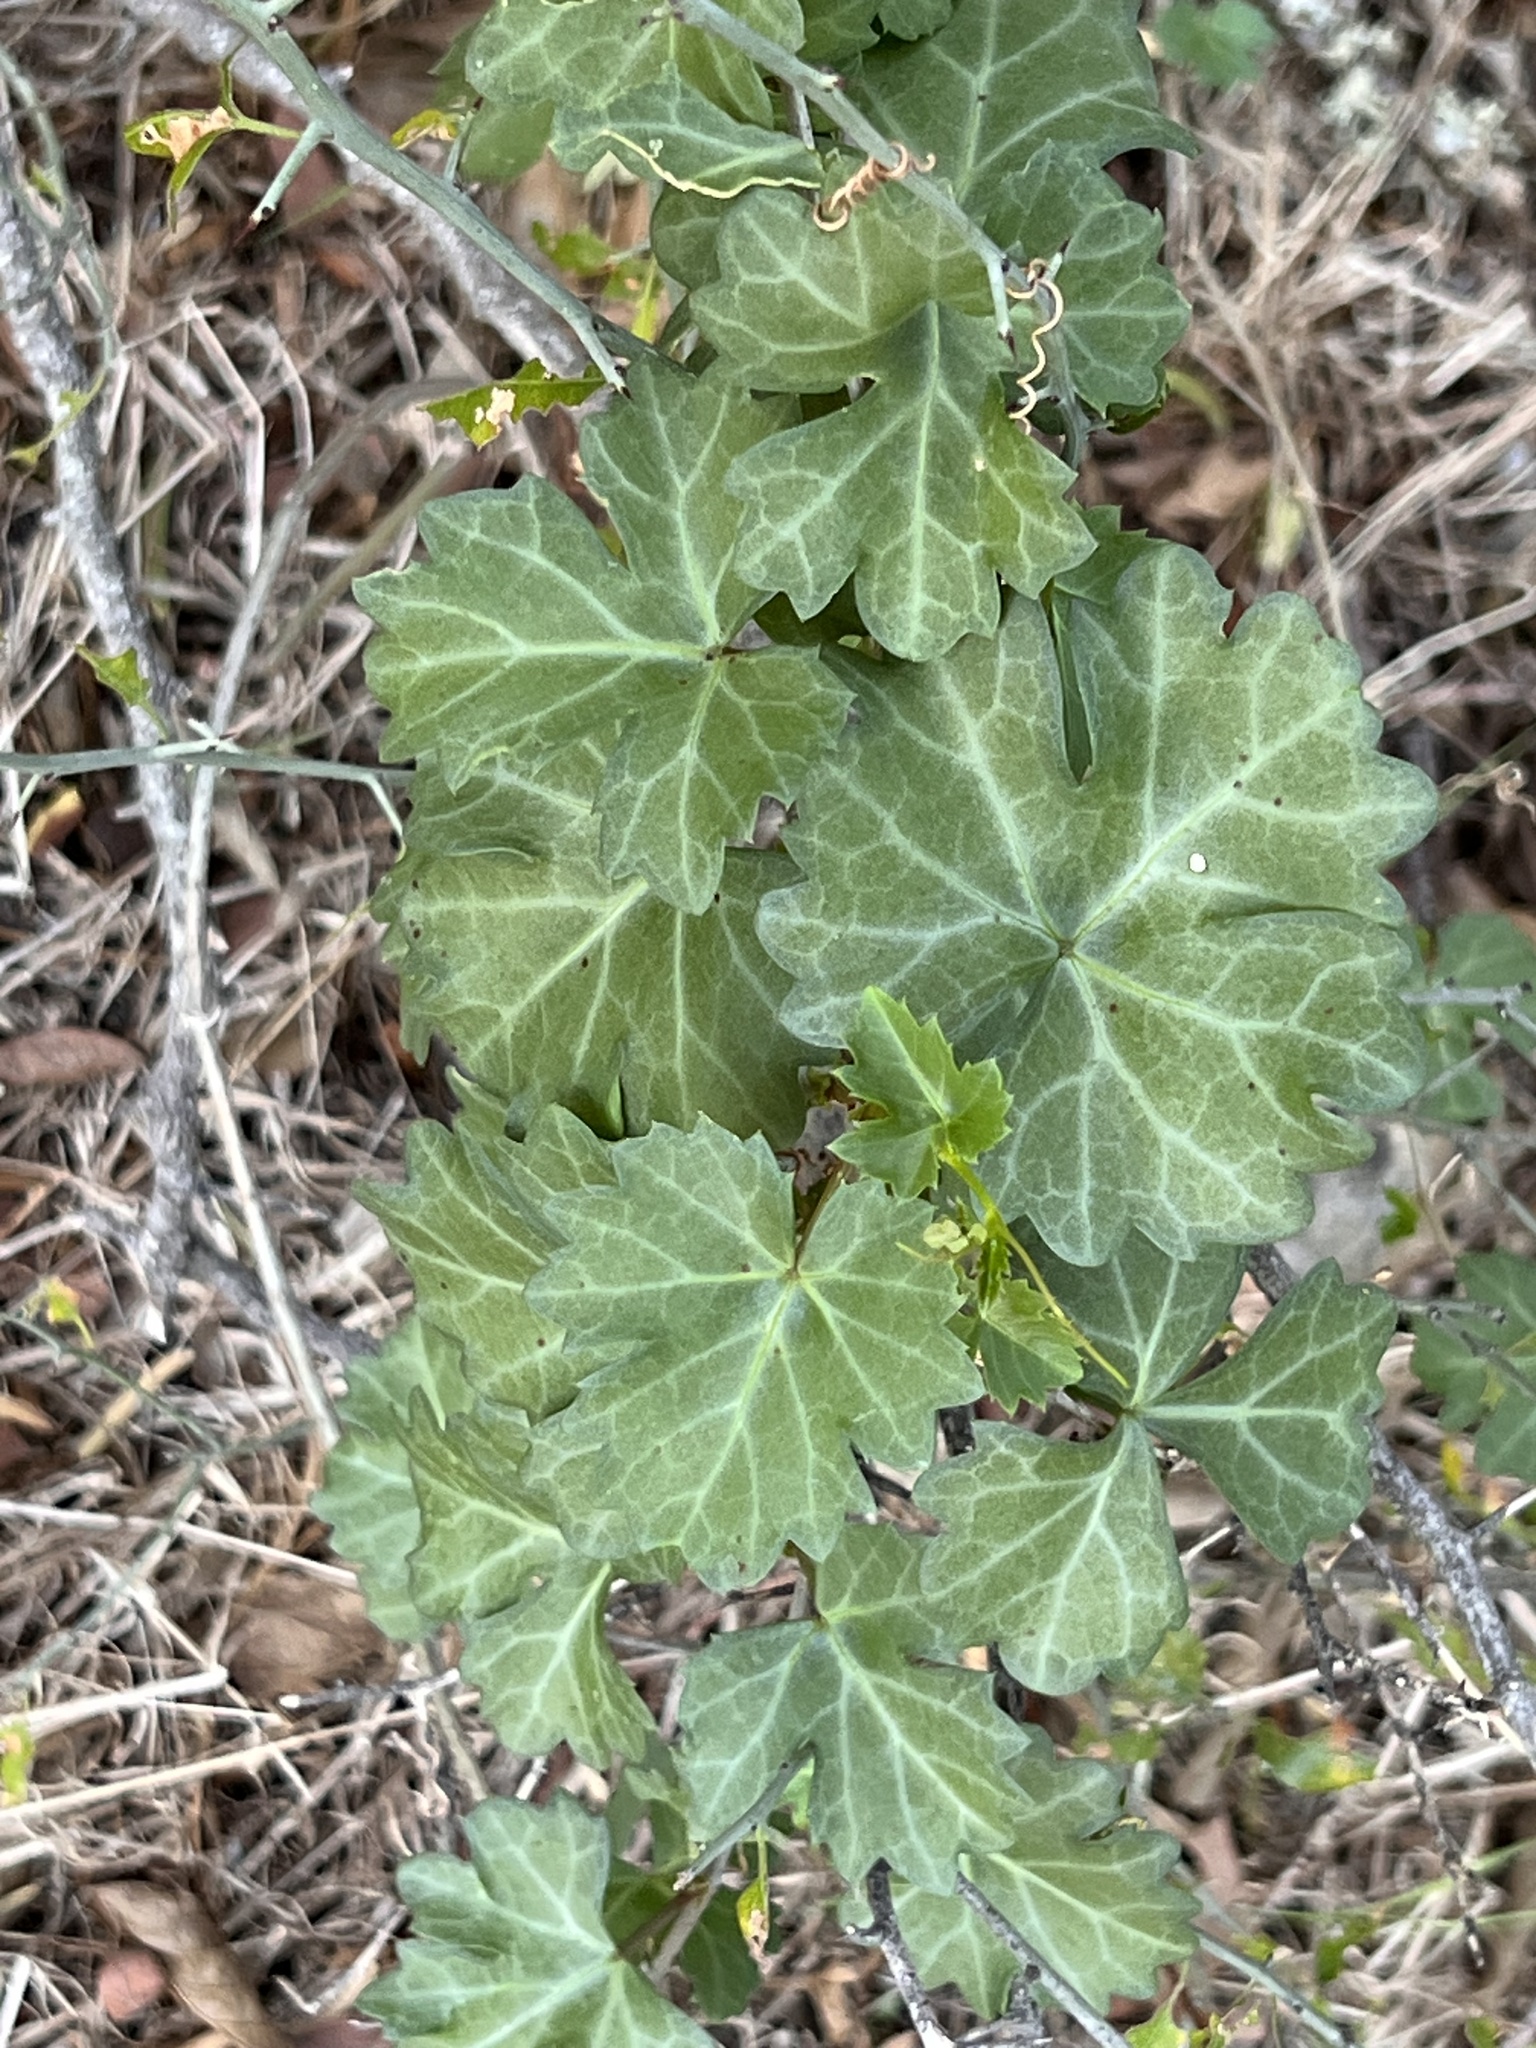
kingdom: Plantae
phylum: Tracheophyta
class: Magnoliopsida
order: Vitales
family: Vitaceae
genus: Cissus
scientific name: Cissus trifoliata
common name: Vine-sorrel
